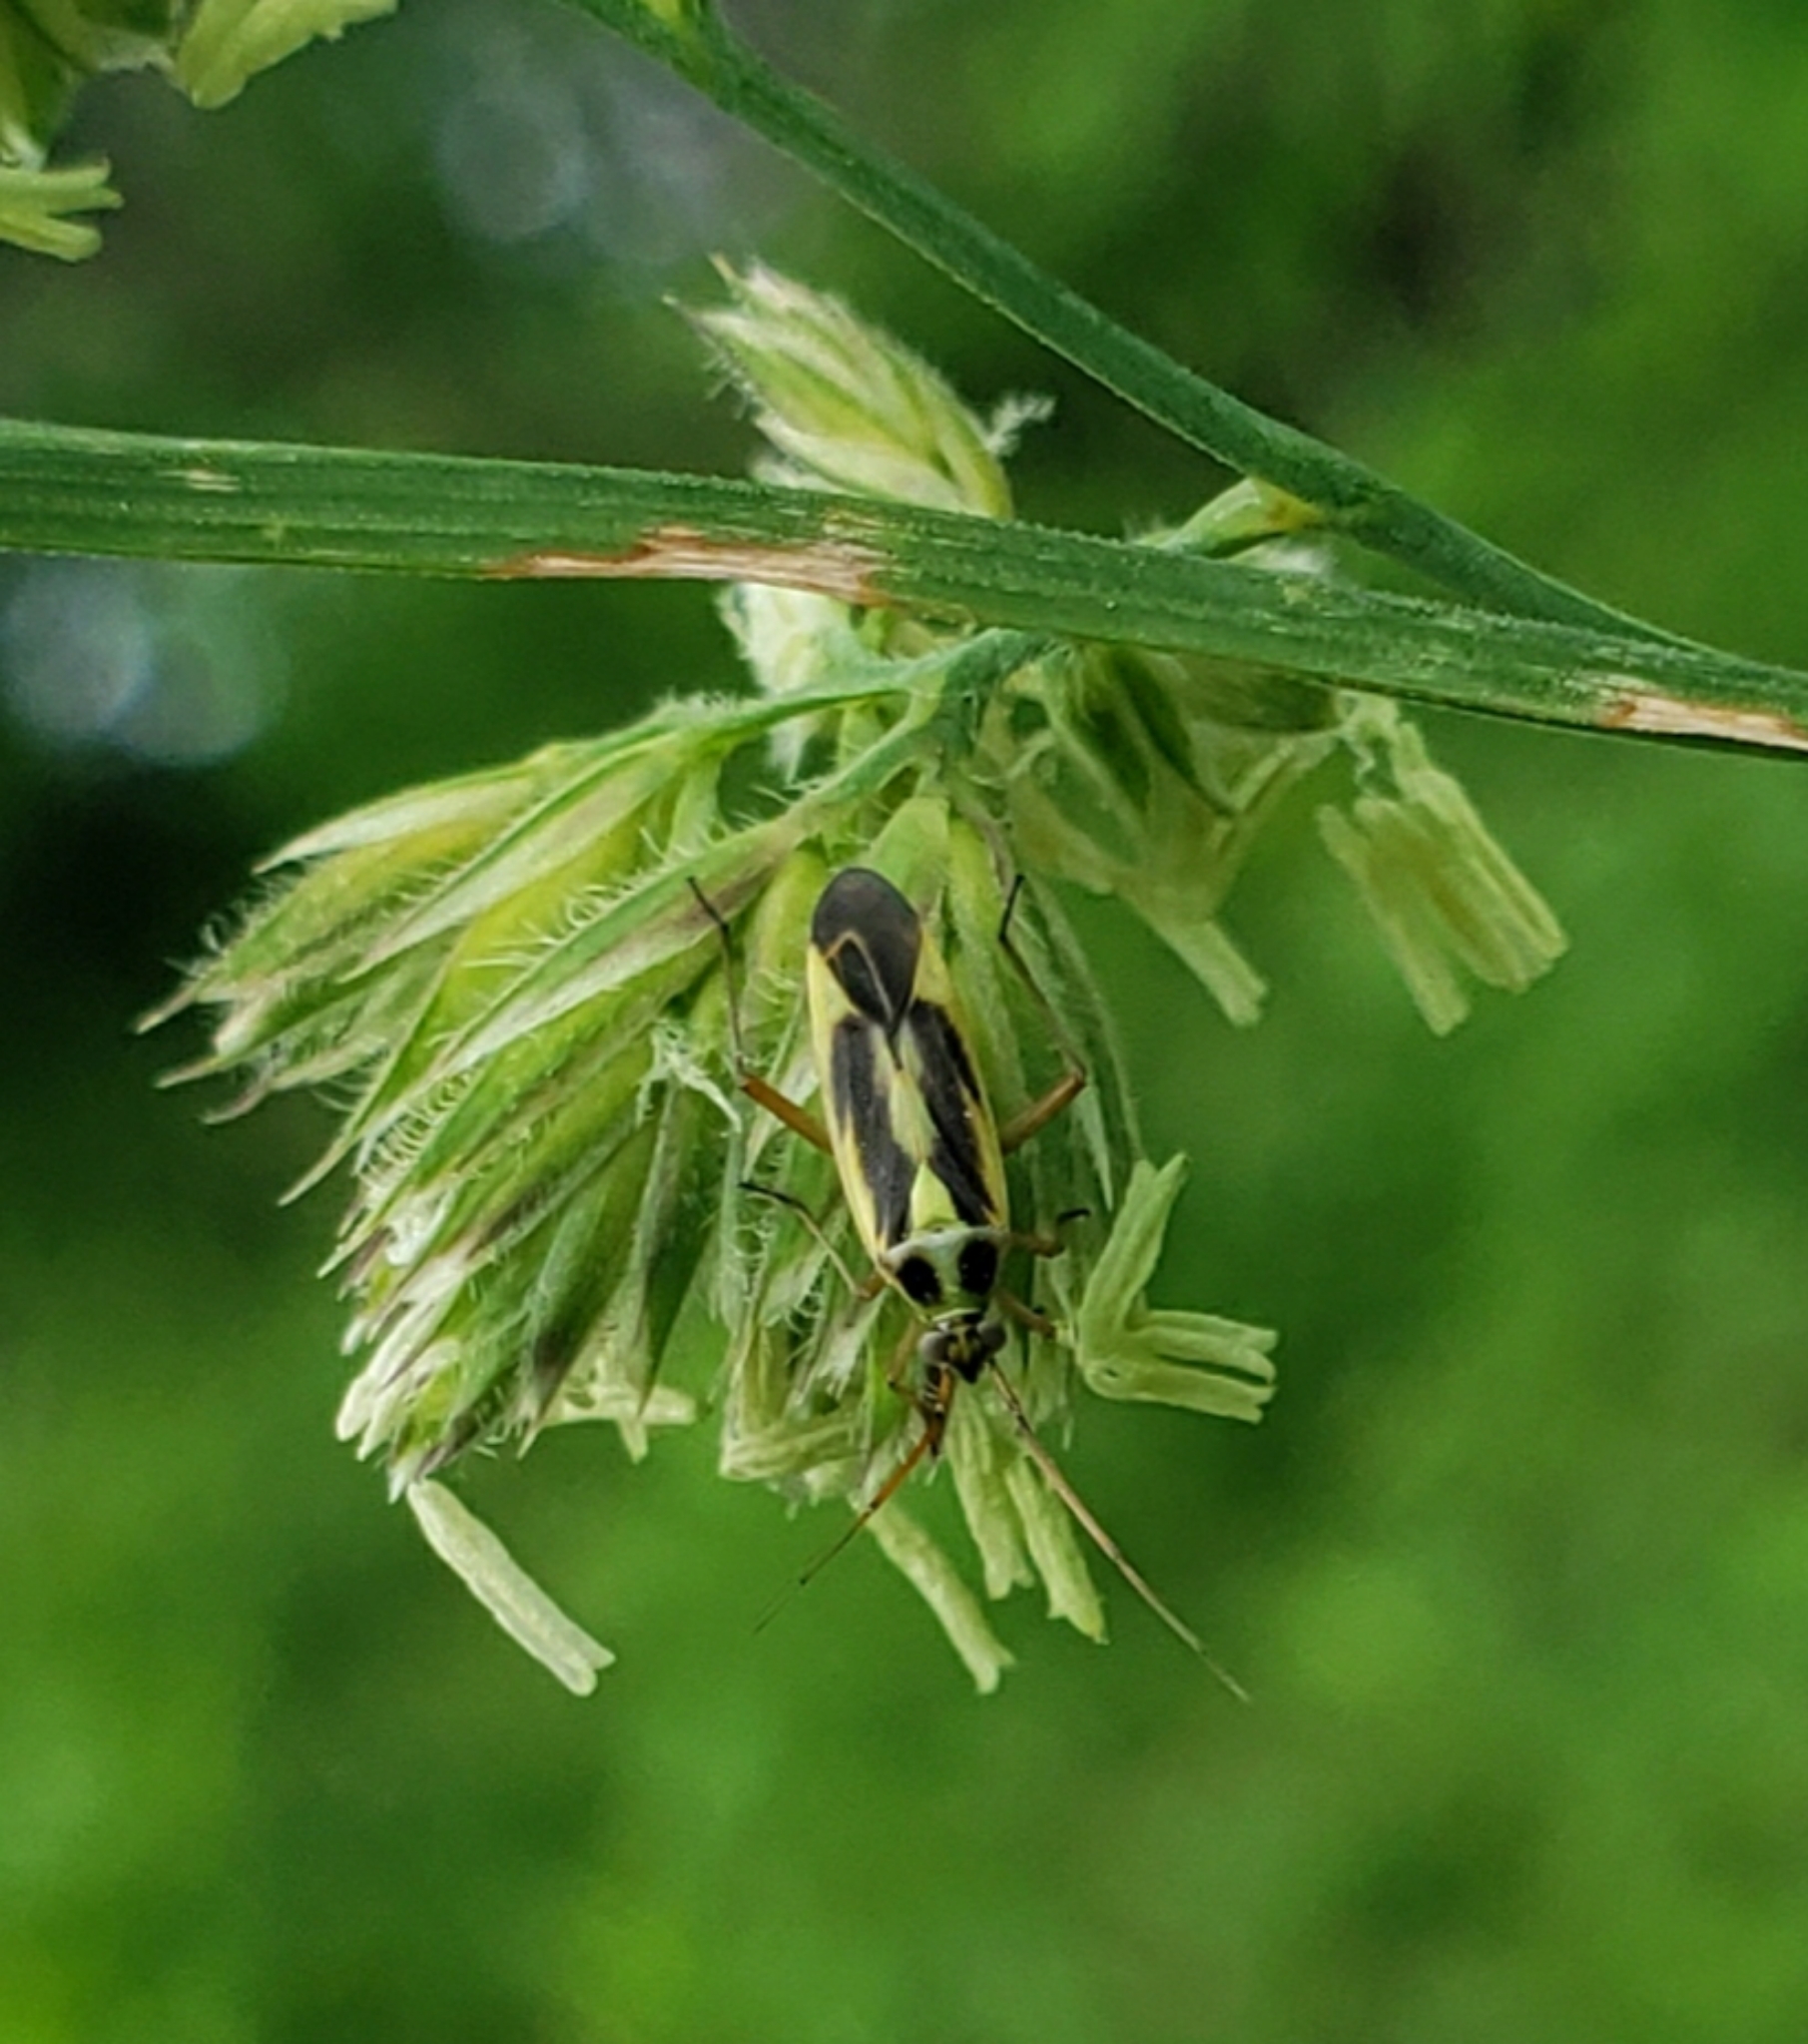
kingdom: Animalia
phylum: Arthropoda
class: Insecta
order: Hemiptera
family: Miridae
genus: Stenotus
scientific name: Stenotus binotatus
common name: Plant bug
